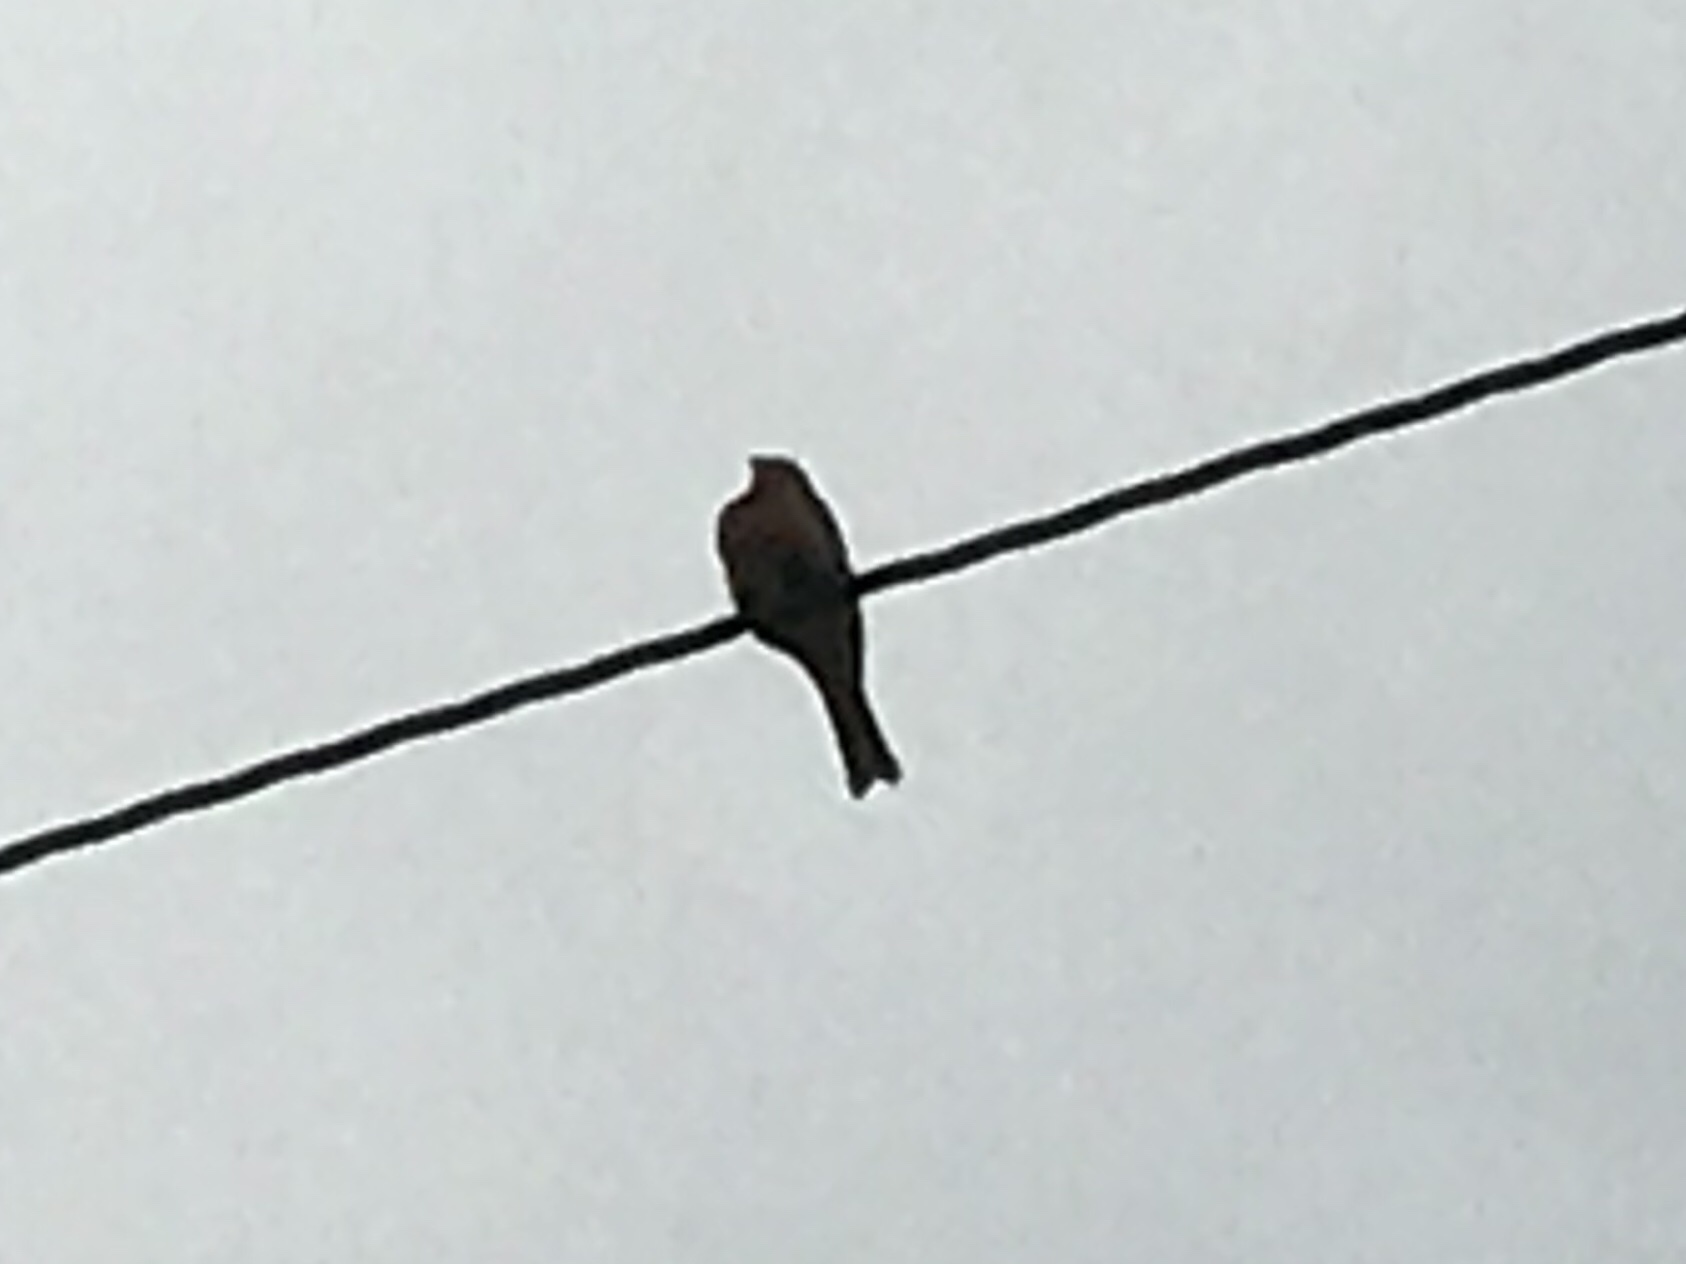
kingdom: Animalia
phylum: Chordata
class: Aves
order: Passeriformes
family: Fringillidae
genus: Haemorhous
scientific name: Haemorhous mexicanus
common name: House finch
